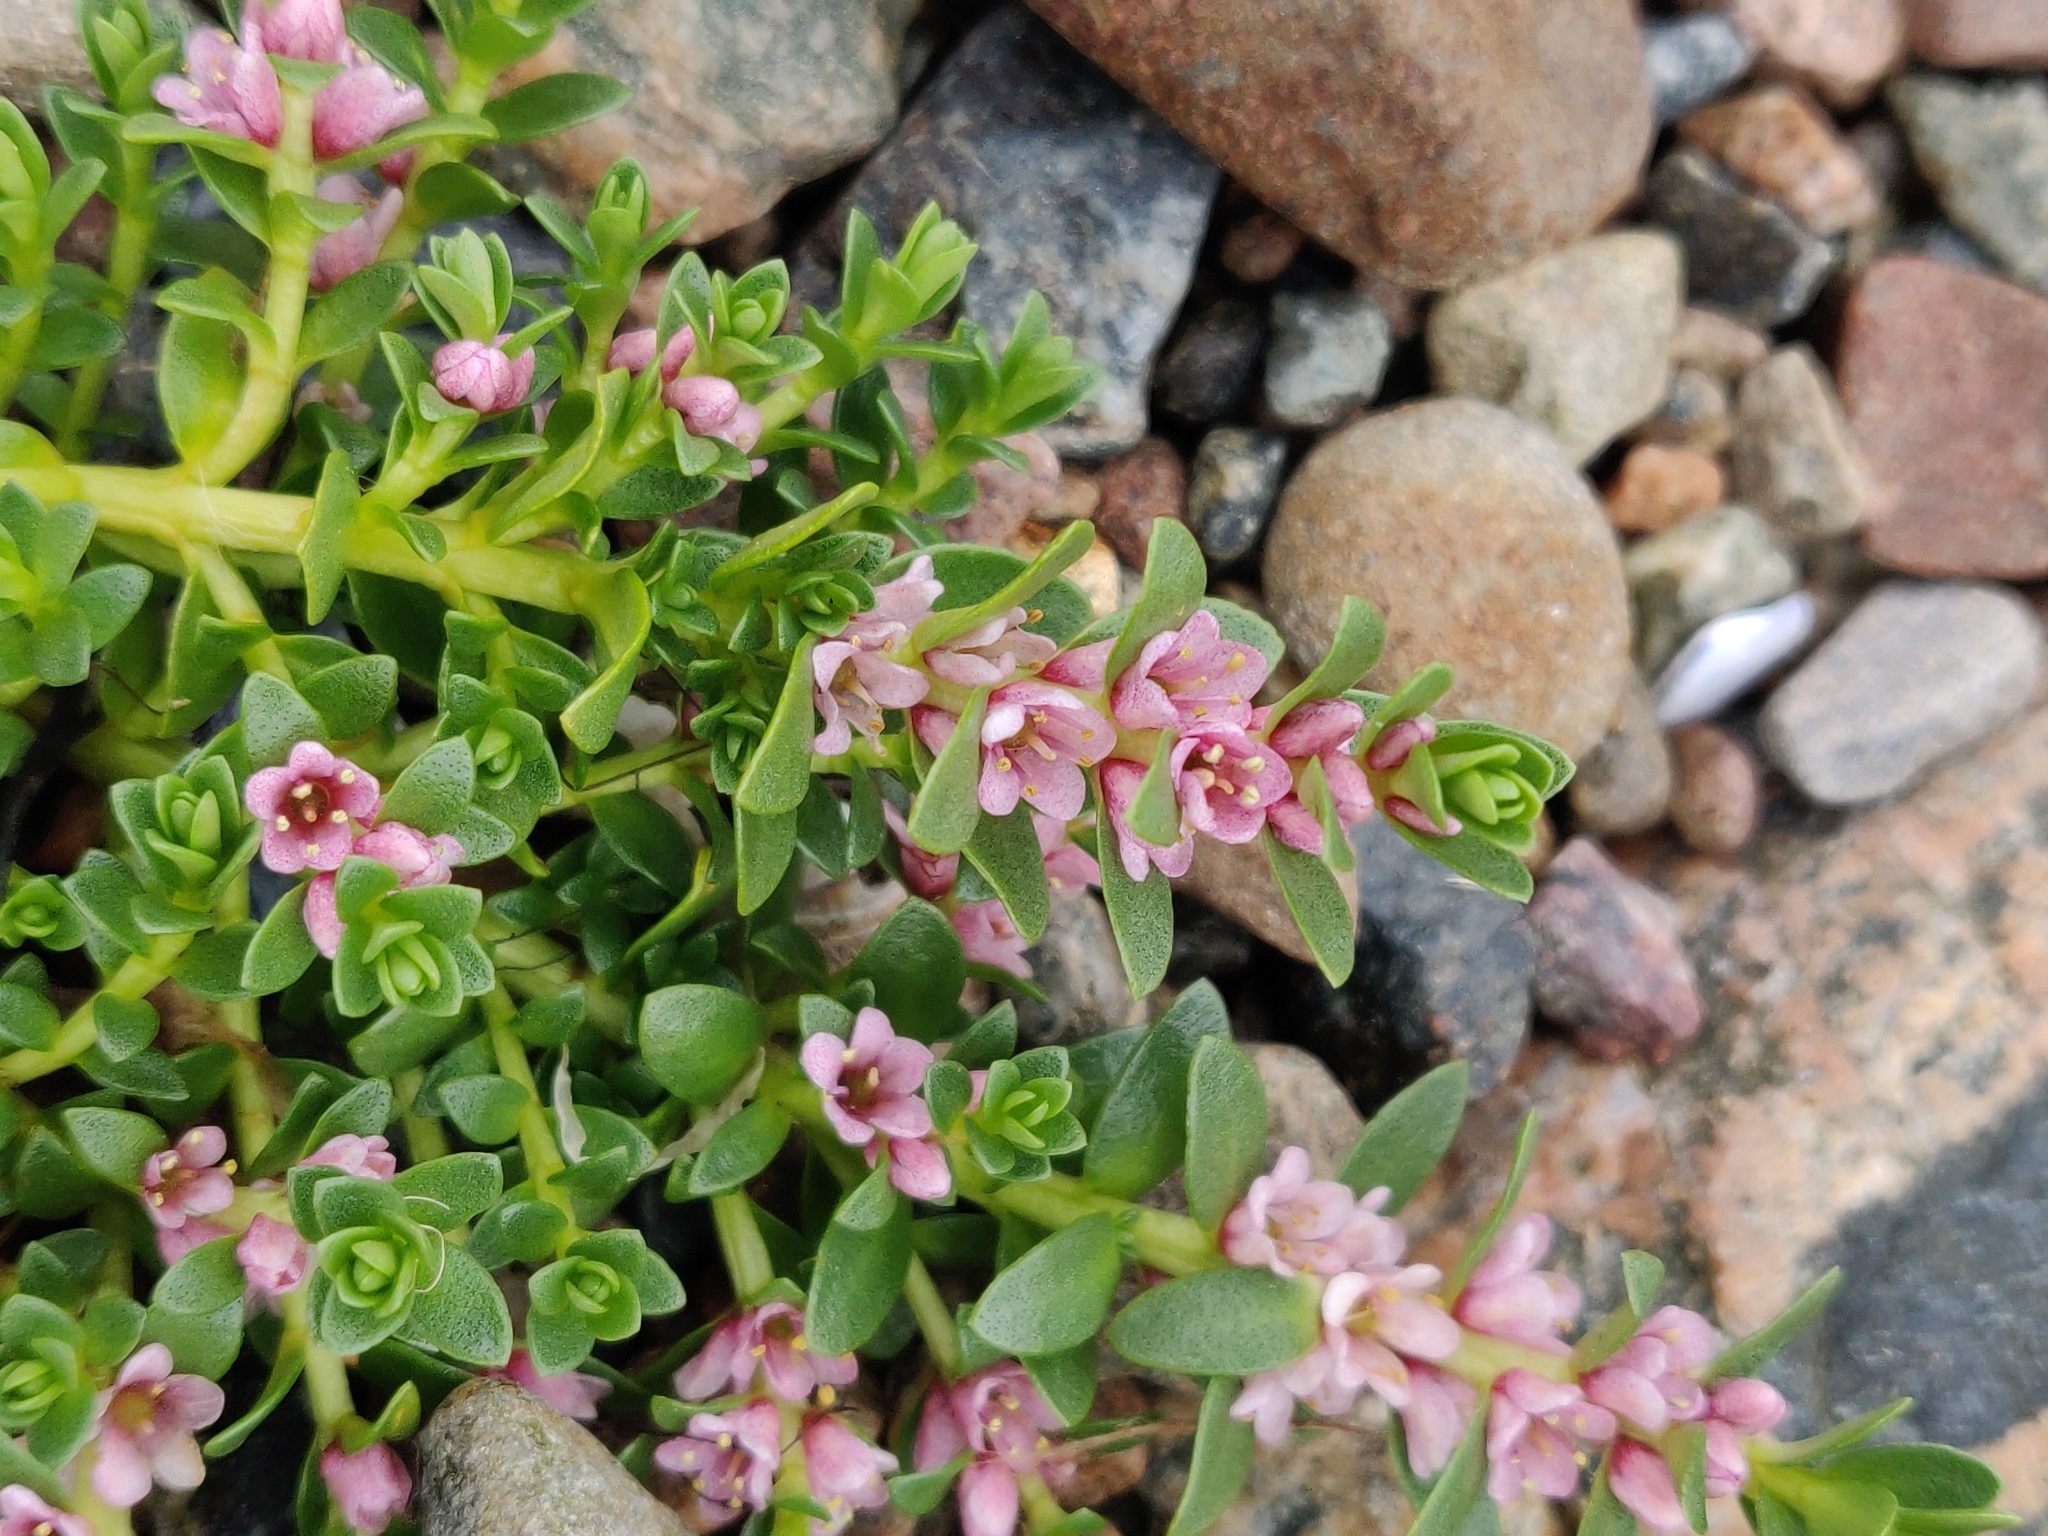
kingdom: Plantae
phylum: Tracheophyta
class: Magnoliopsida
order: Ericales
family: Primulaceae
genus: Lysimachia
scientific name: Lysimachia maritima
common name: Sea milkwort
